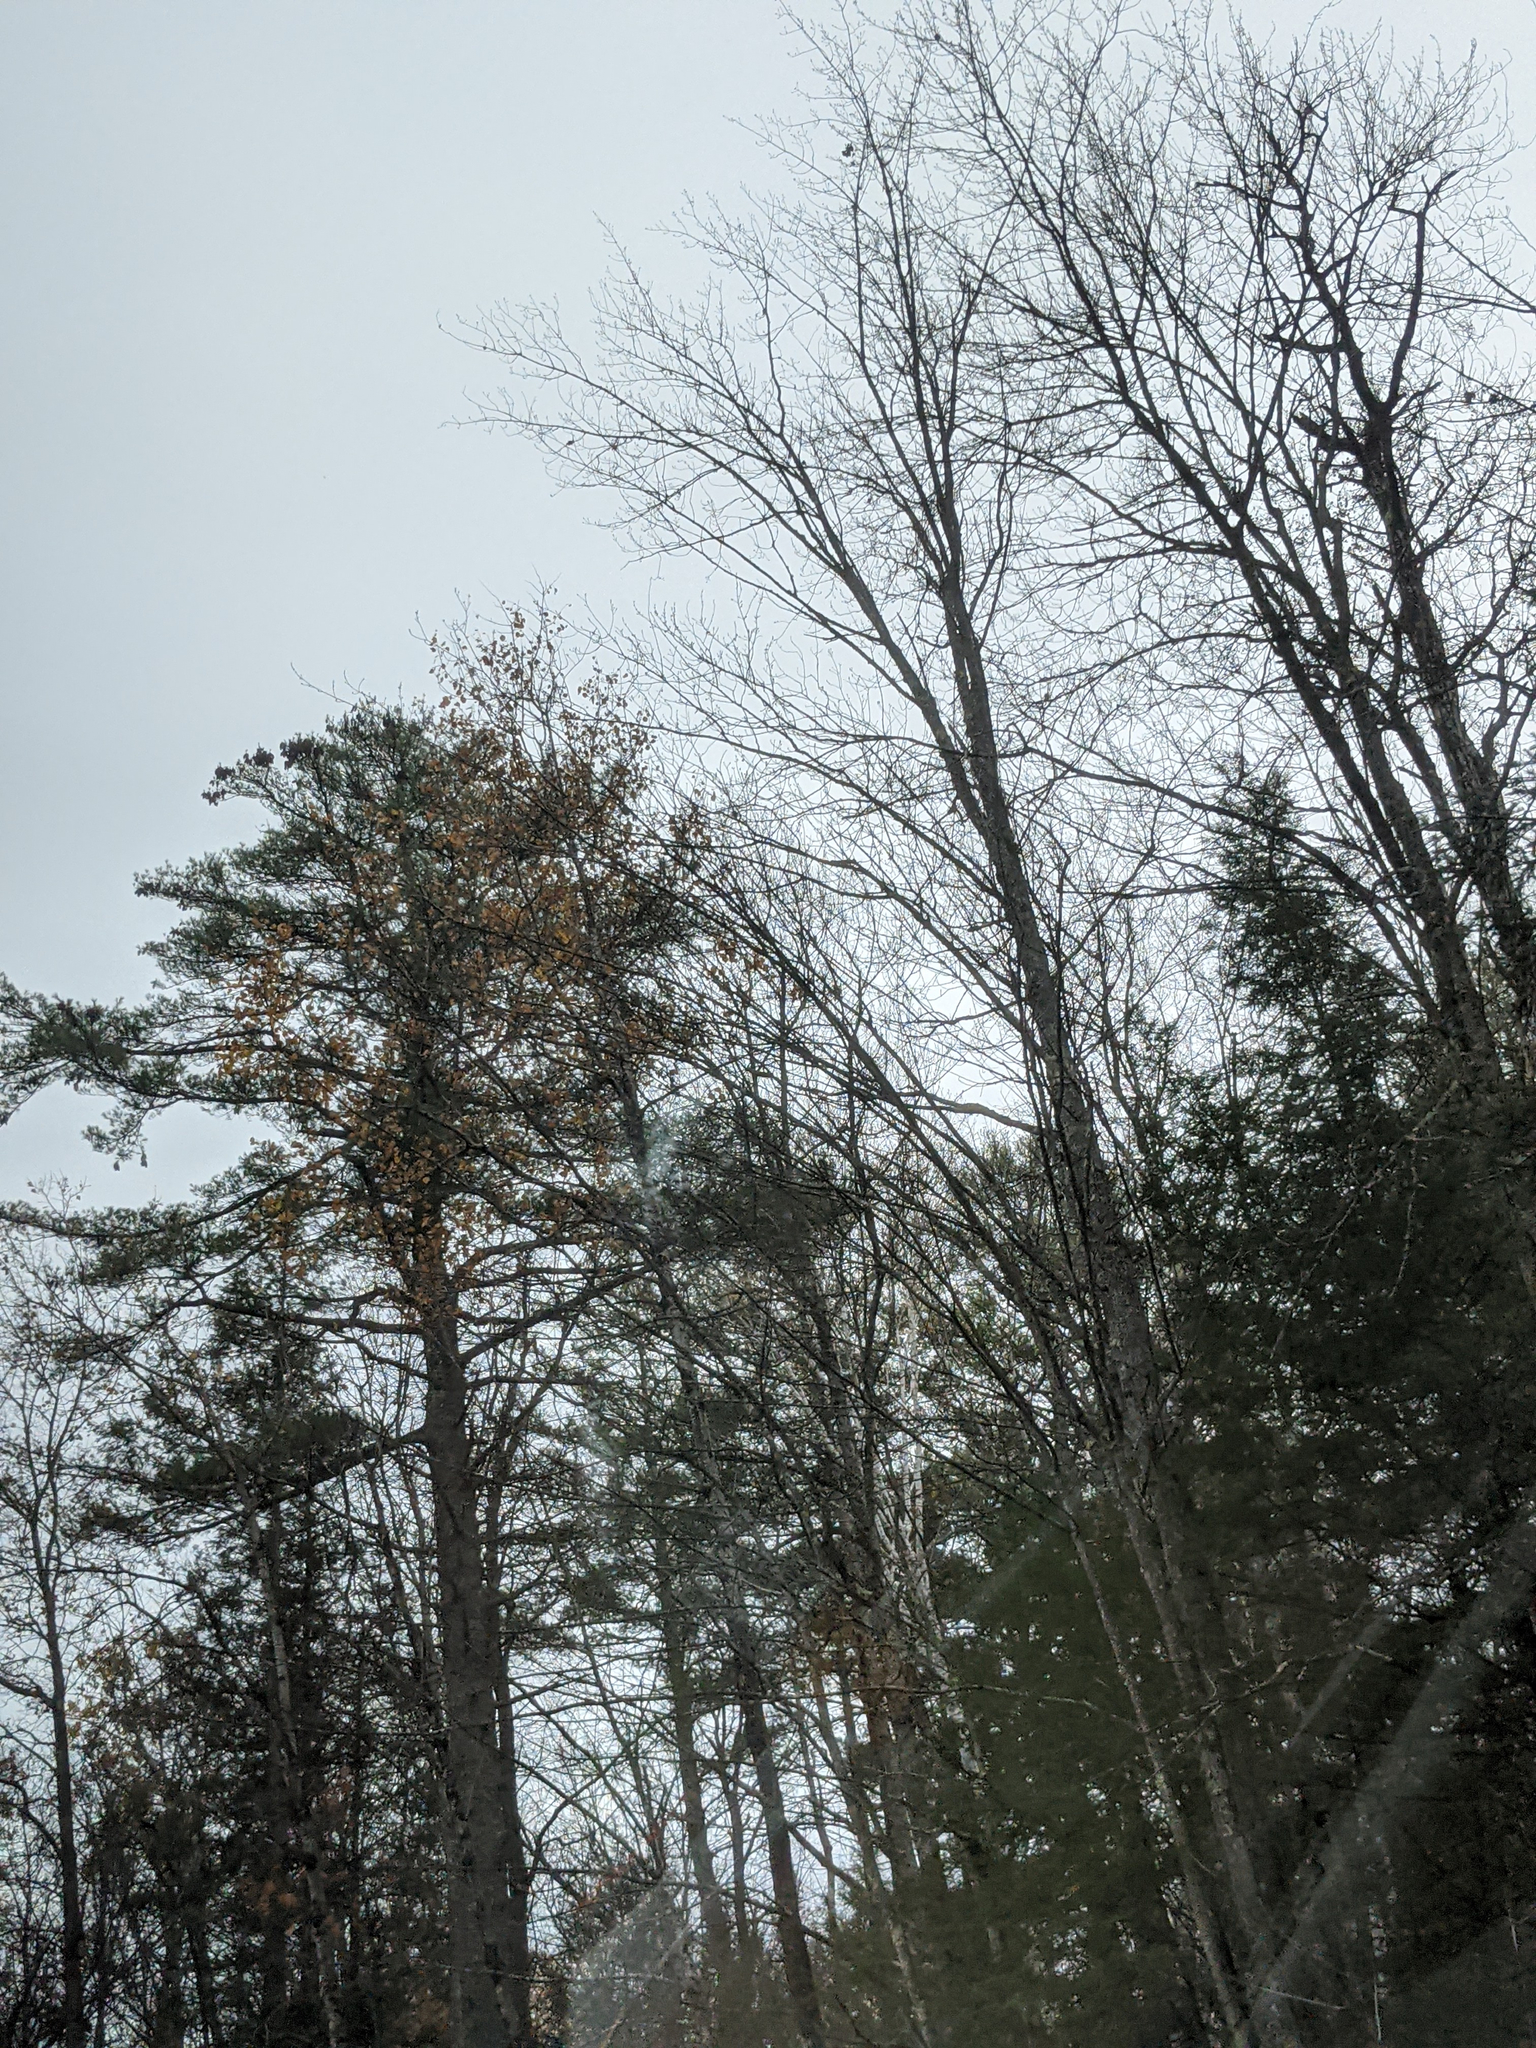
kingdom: Plantae
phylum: Tracheophyta
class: Pinopsida
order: Pinales
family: Pinaceae
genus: Pinus
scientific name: Pinus strobus
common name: Weymouth pine
